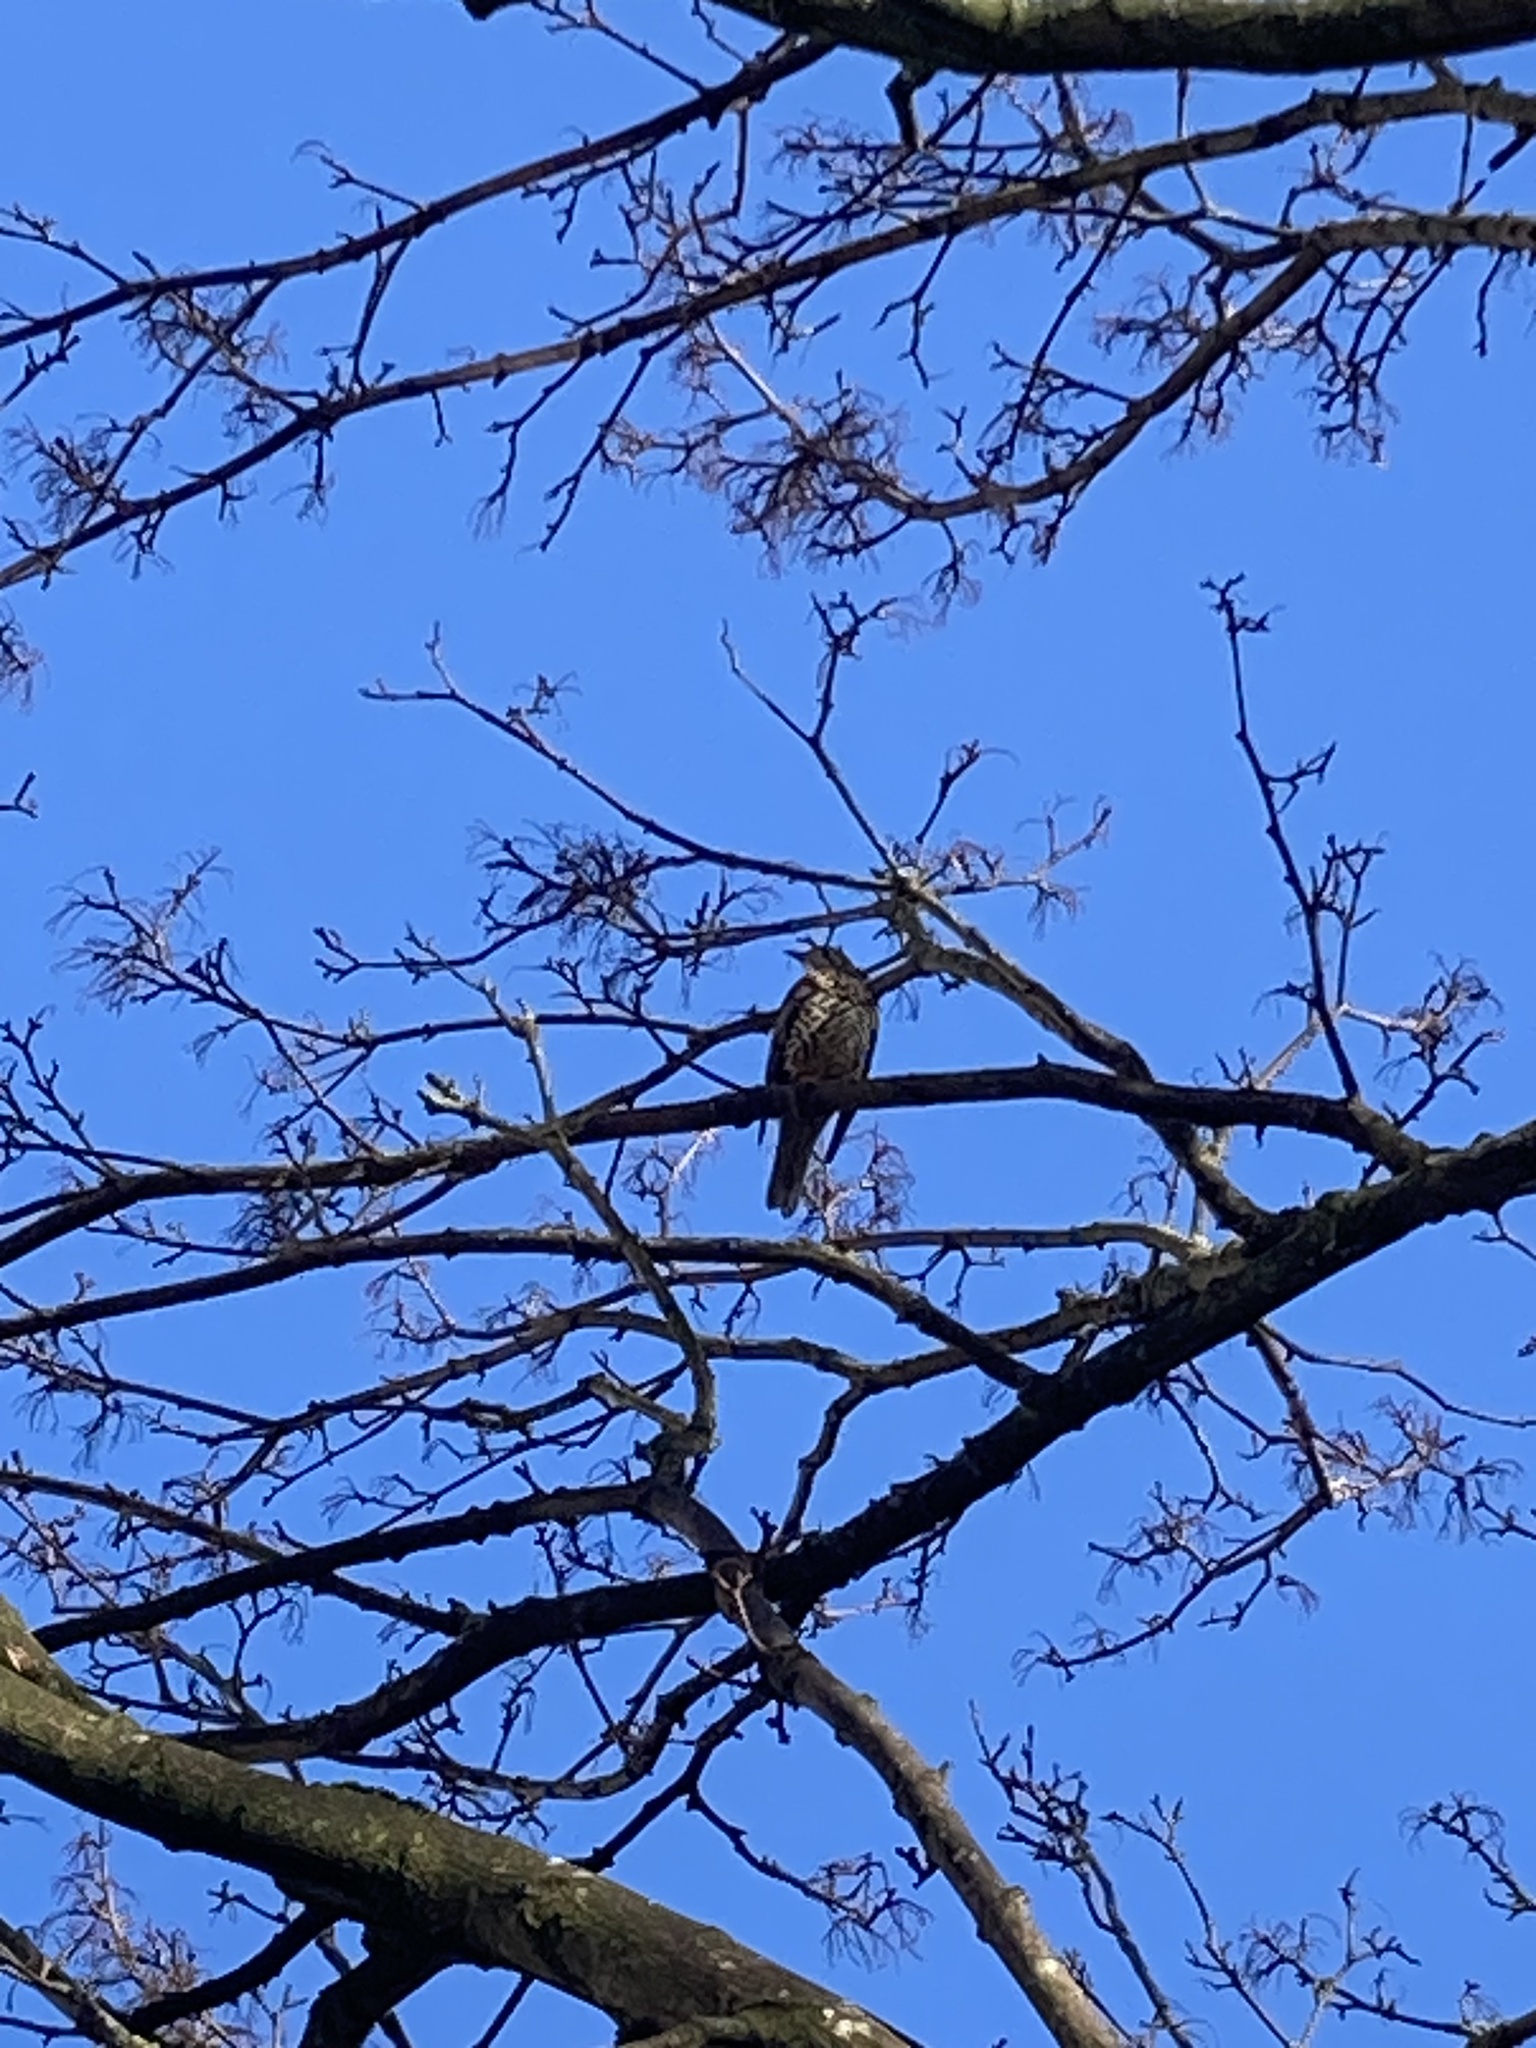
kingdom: Animalia
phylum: Chordata
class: Aves
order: Passeriformes
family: Turdidae
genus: Turdus
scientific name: Turdus viscivorus
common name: Mistle thrush
